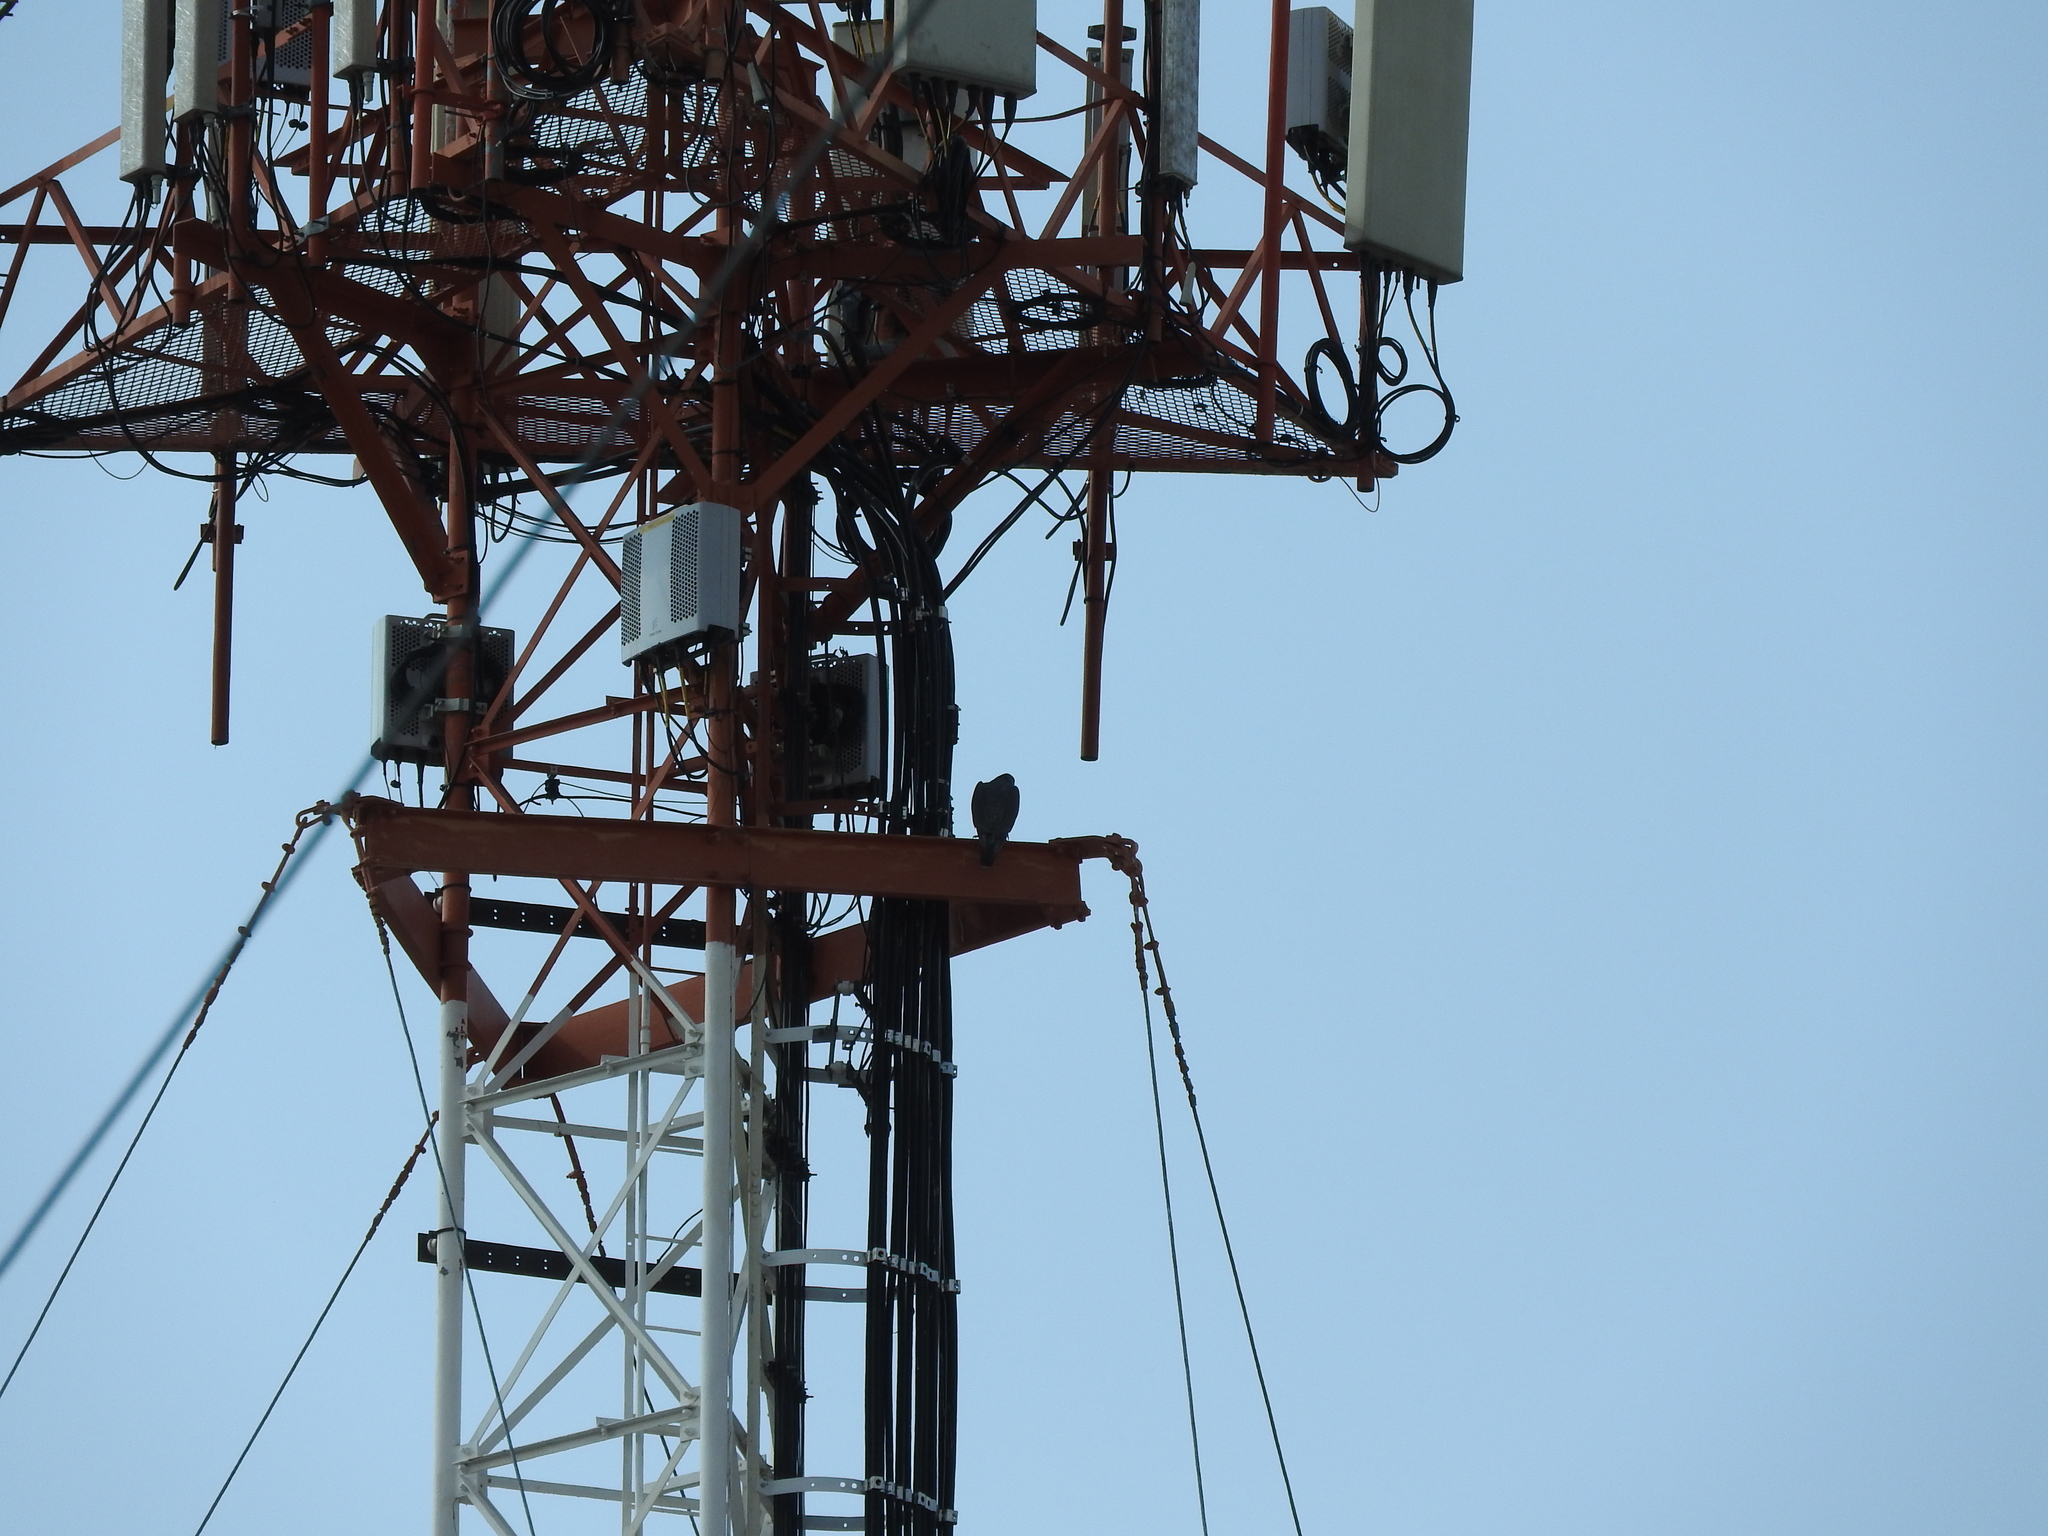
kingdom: Animalia
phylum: Chordata
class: Aves
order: Falconiformes
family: Falconidae
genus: Falco
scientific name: Falco peregrinus
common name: Peregrine falcon
